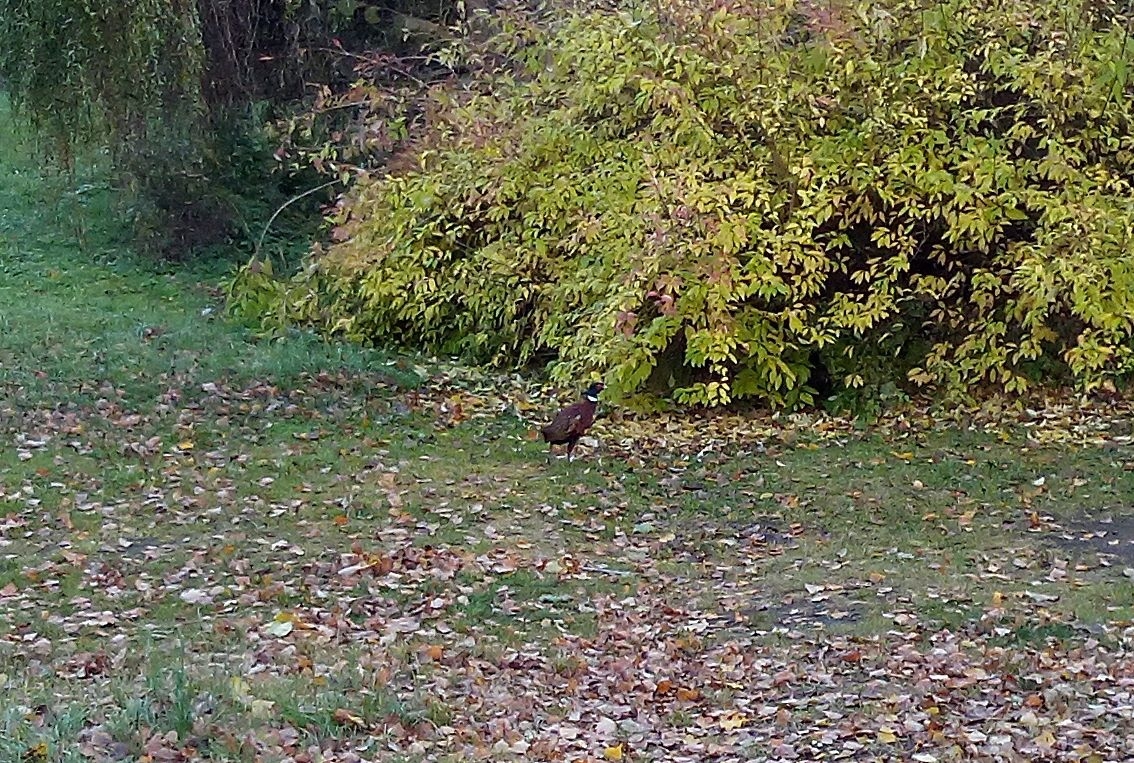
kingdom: Animalia
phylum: Chordata
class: Aves
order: Galliformes
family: Phasianidae
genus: Phasianus
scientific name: Phasianus colchicus
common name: Common pheasant
